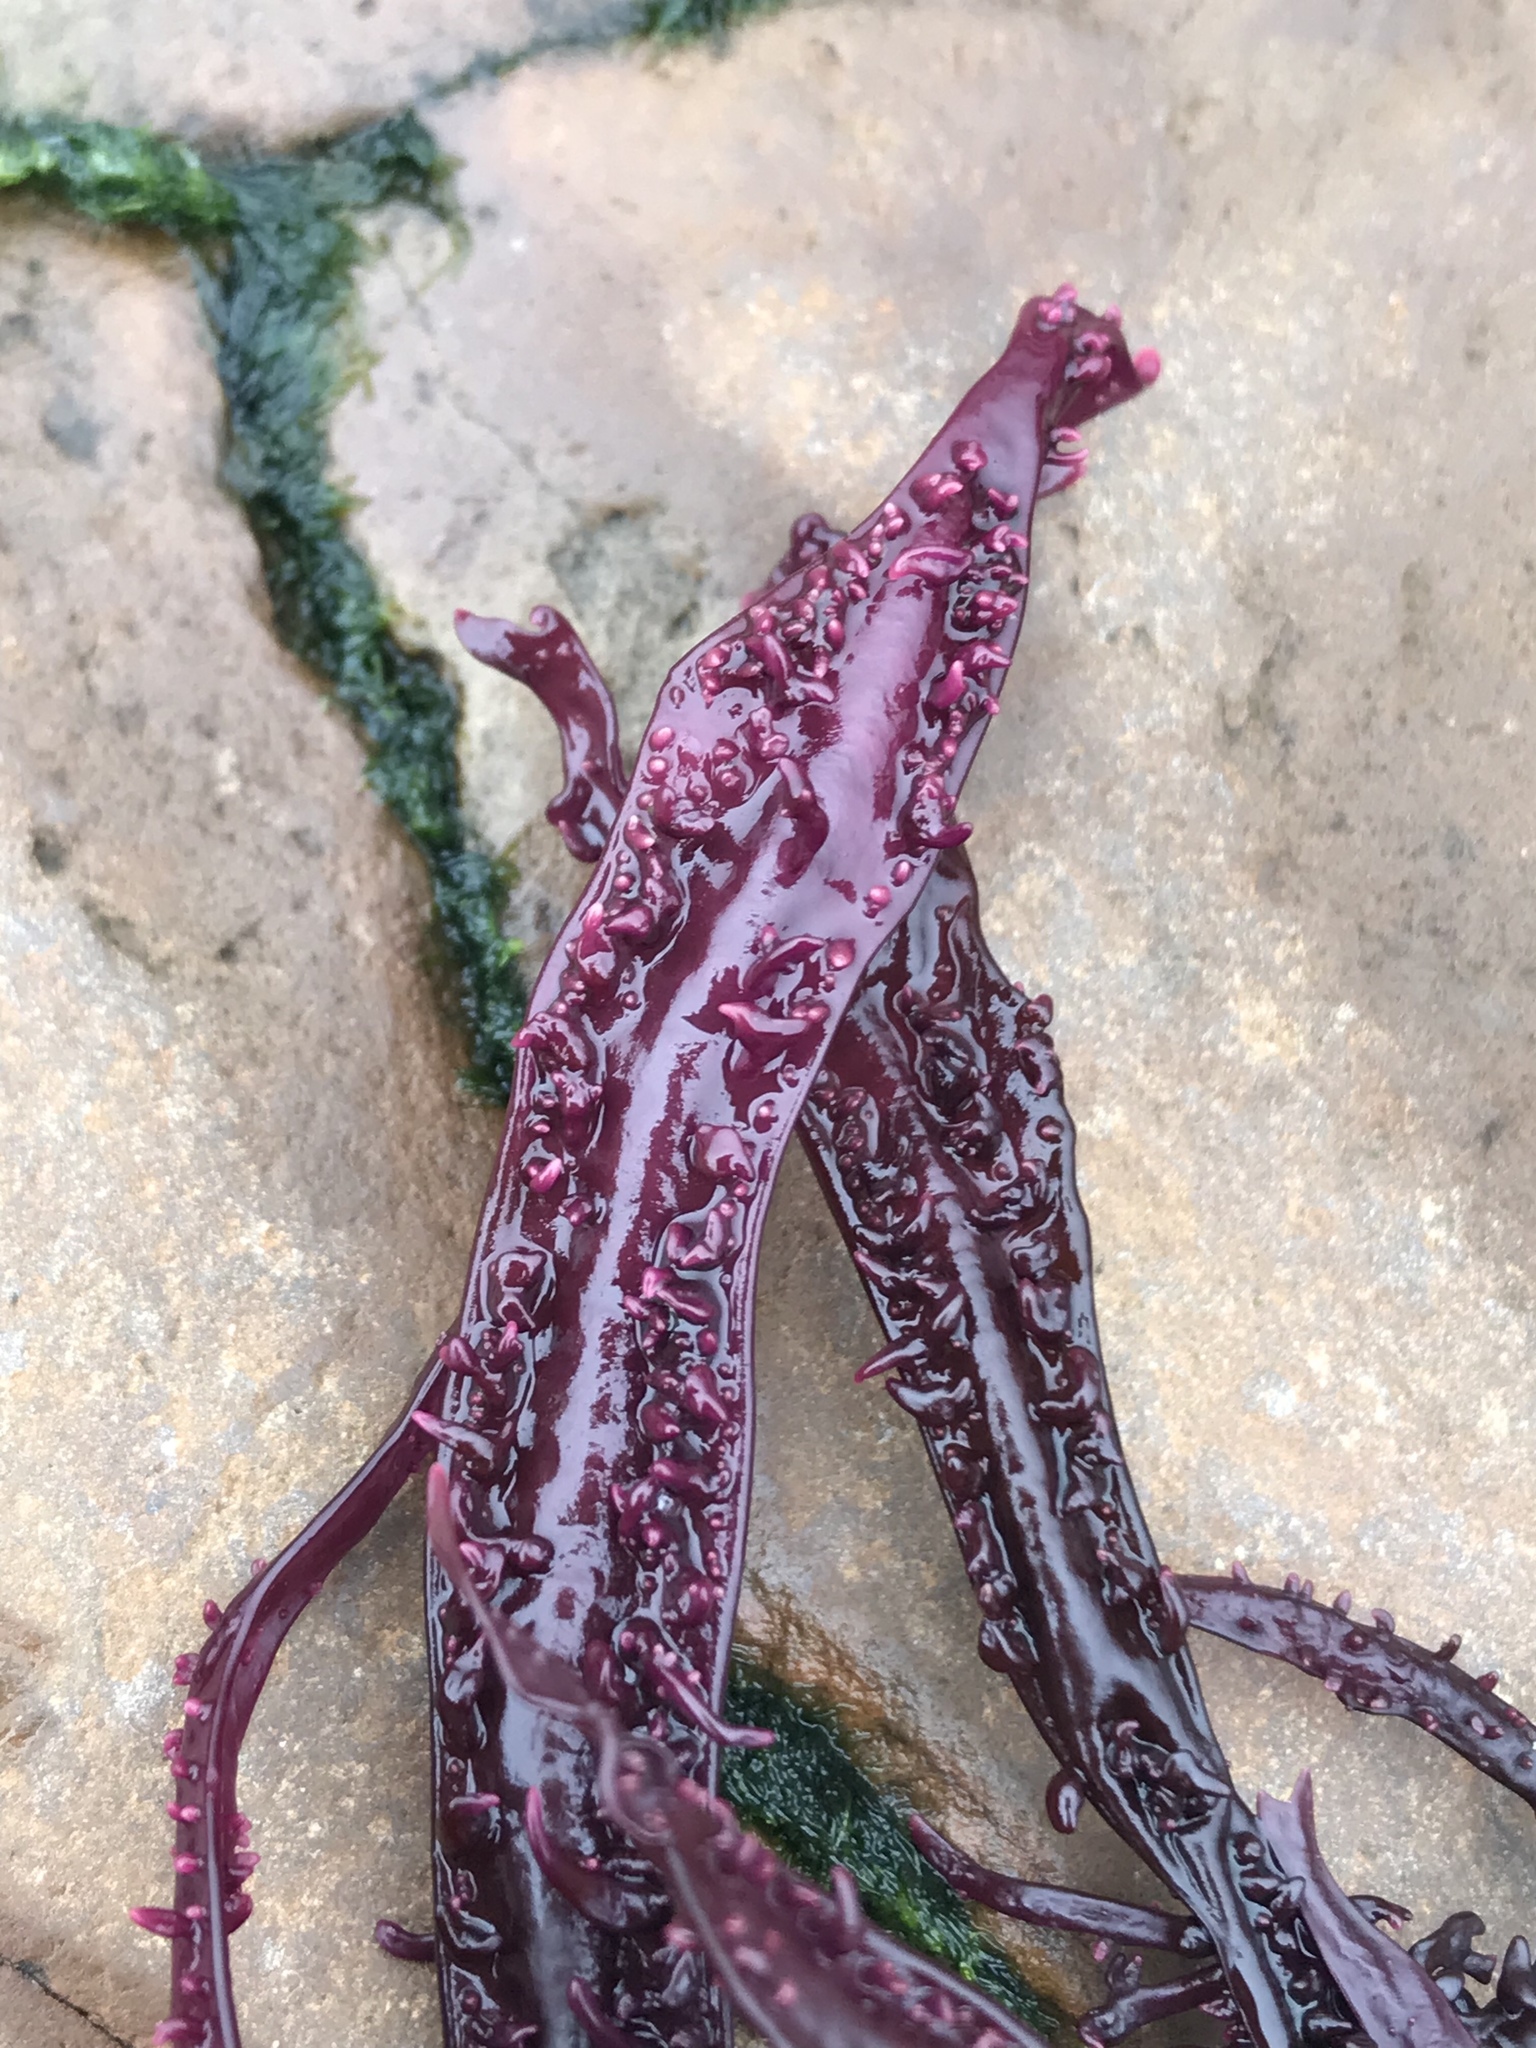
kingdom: Plantae
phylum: Rhodophyta
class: Florideophyceae
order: Gigartinales
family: Phyllophoraceae
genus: Mastocarpus
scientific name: Mastocarpus jardinii
